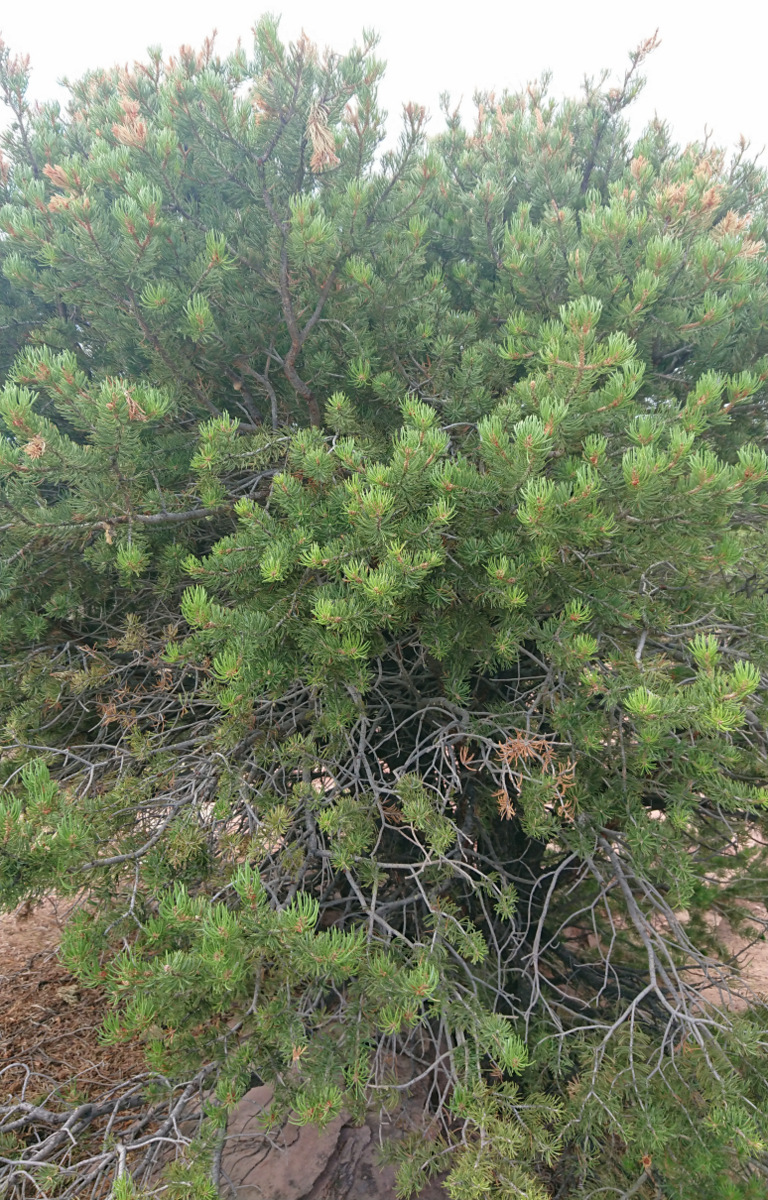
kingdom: Plantae
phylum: Tracheophyta
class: Pinopsida
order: Pinales
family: Pinaceae
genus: Pinus
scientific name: Pinus edulis
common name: Colorado pinyon
